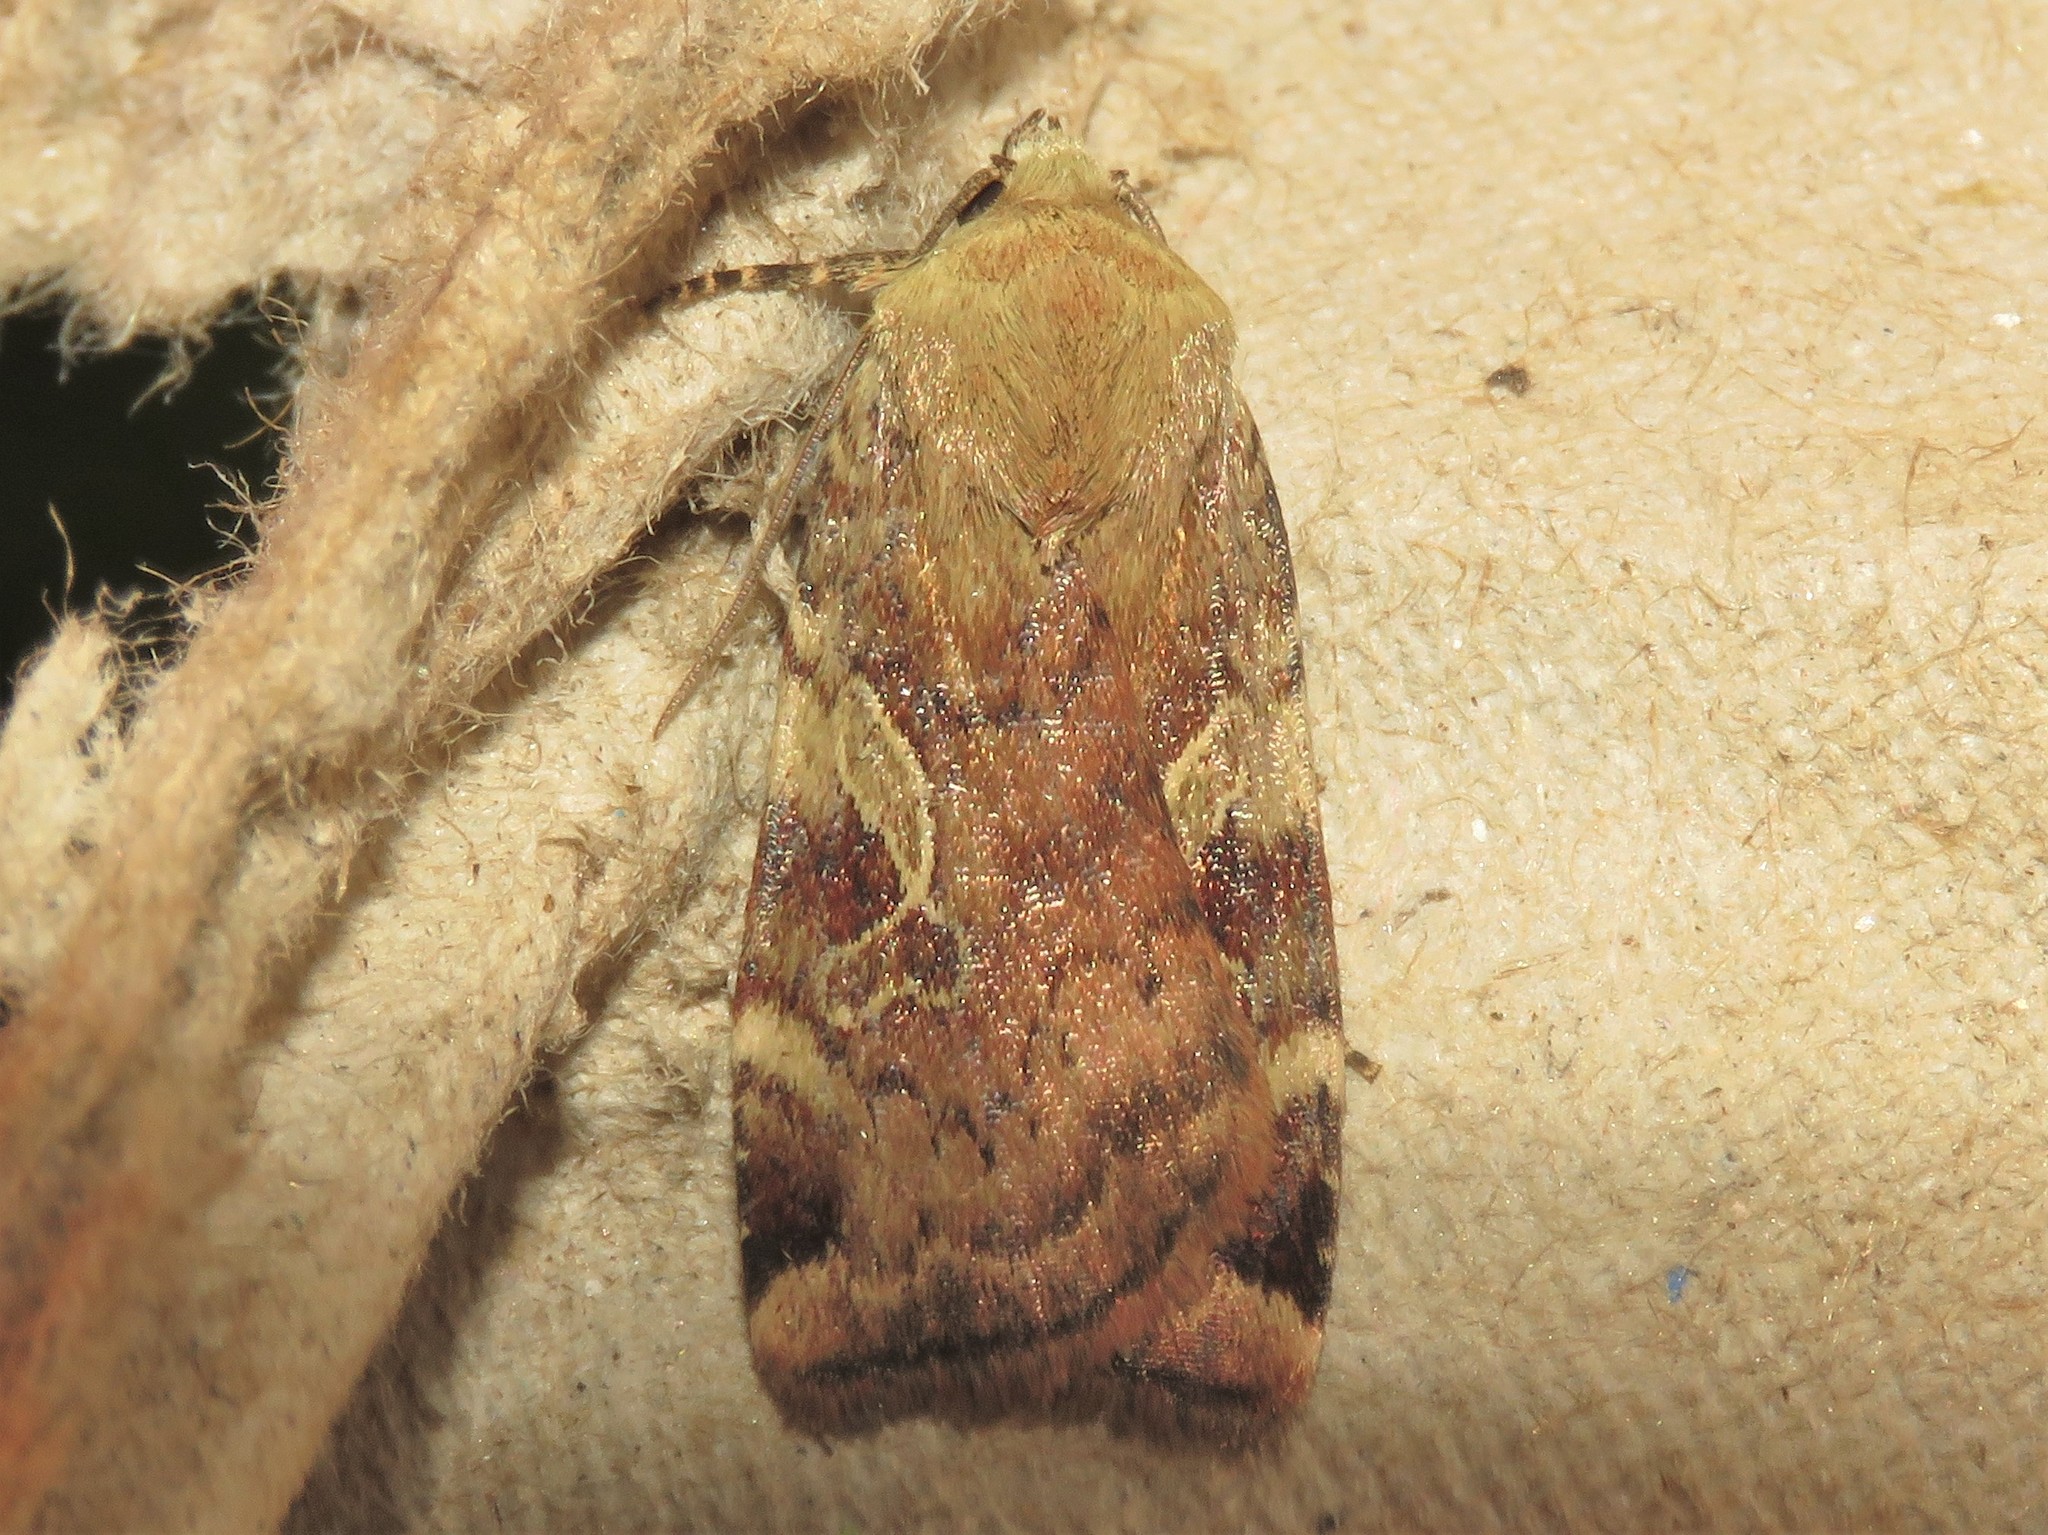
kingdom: Animalia
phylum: Arthropoda
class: Insecta
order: Lepidoptera
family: Noctuidae
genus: Cryptocala
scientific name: Cryptocala acadiensis
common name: Catocaline dart
